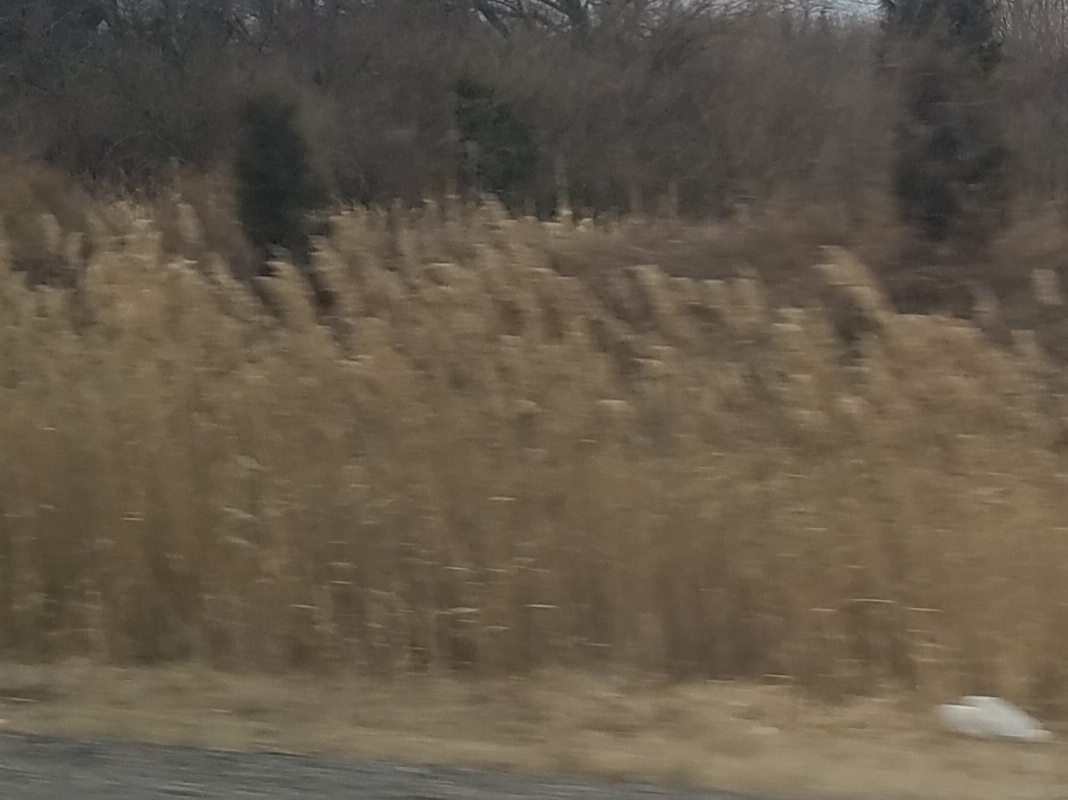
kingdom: Plantae
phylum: Tracheophyta
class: Liliopsida
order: Poales
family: Poaceae
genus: Phragmites
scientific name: Phragmites australis
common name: Common reed
